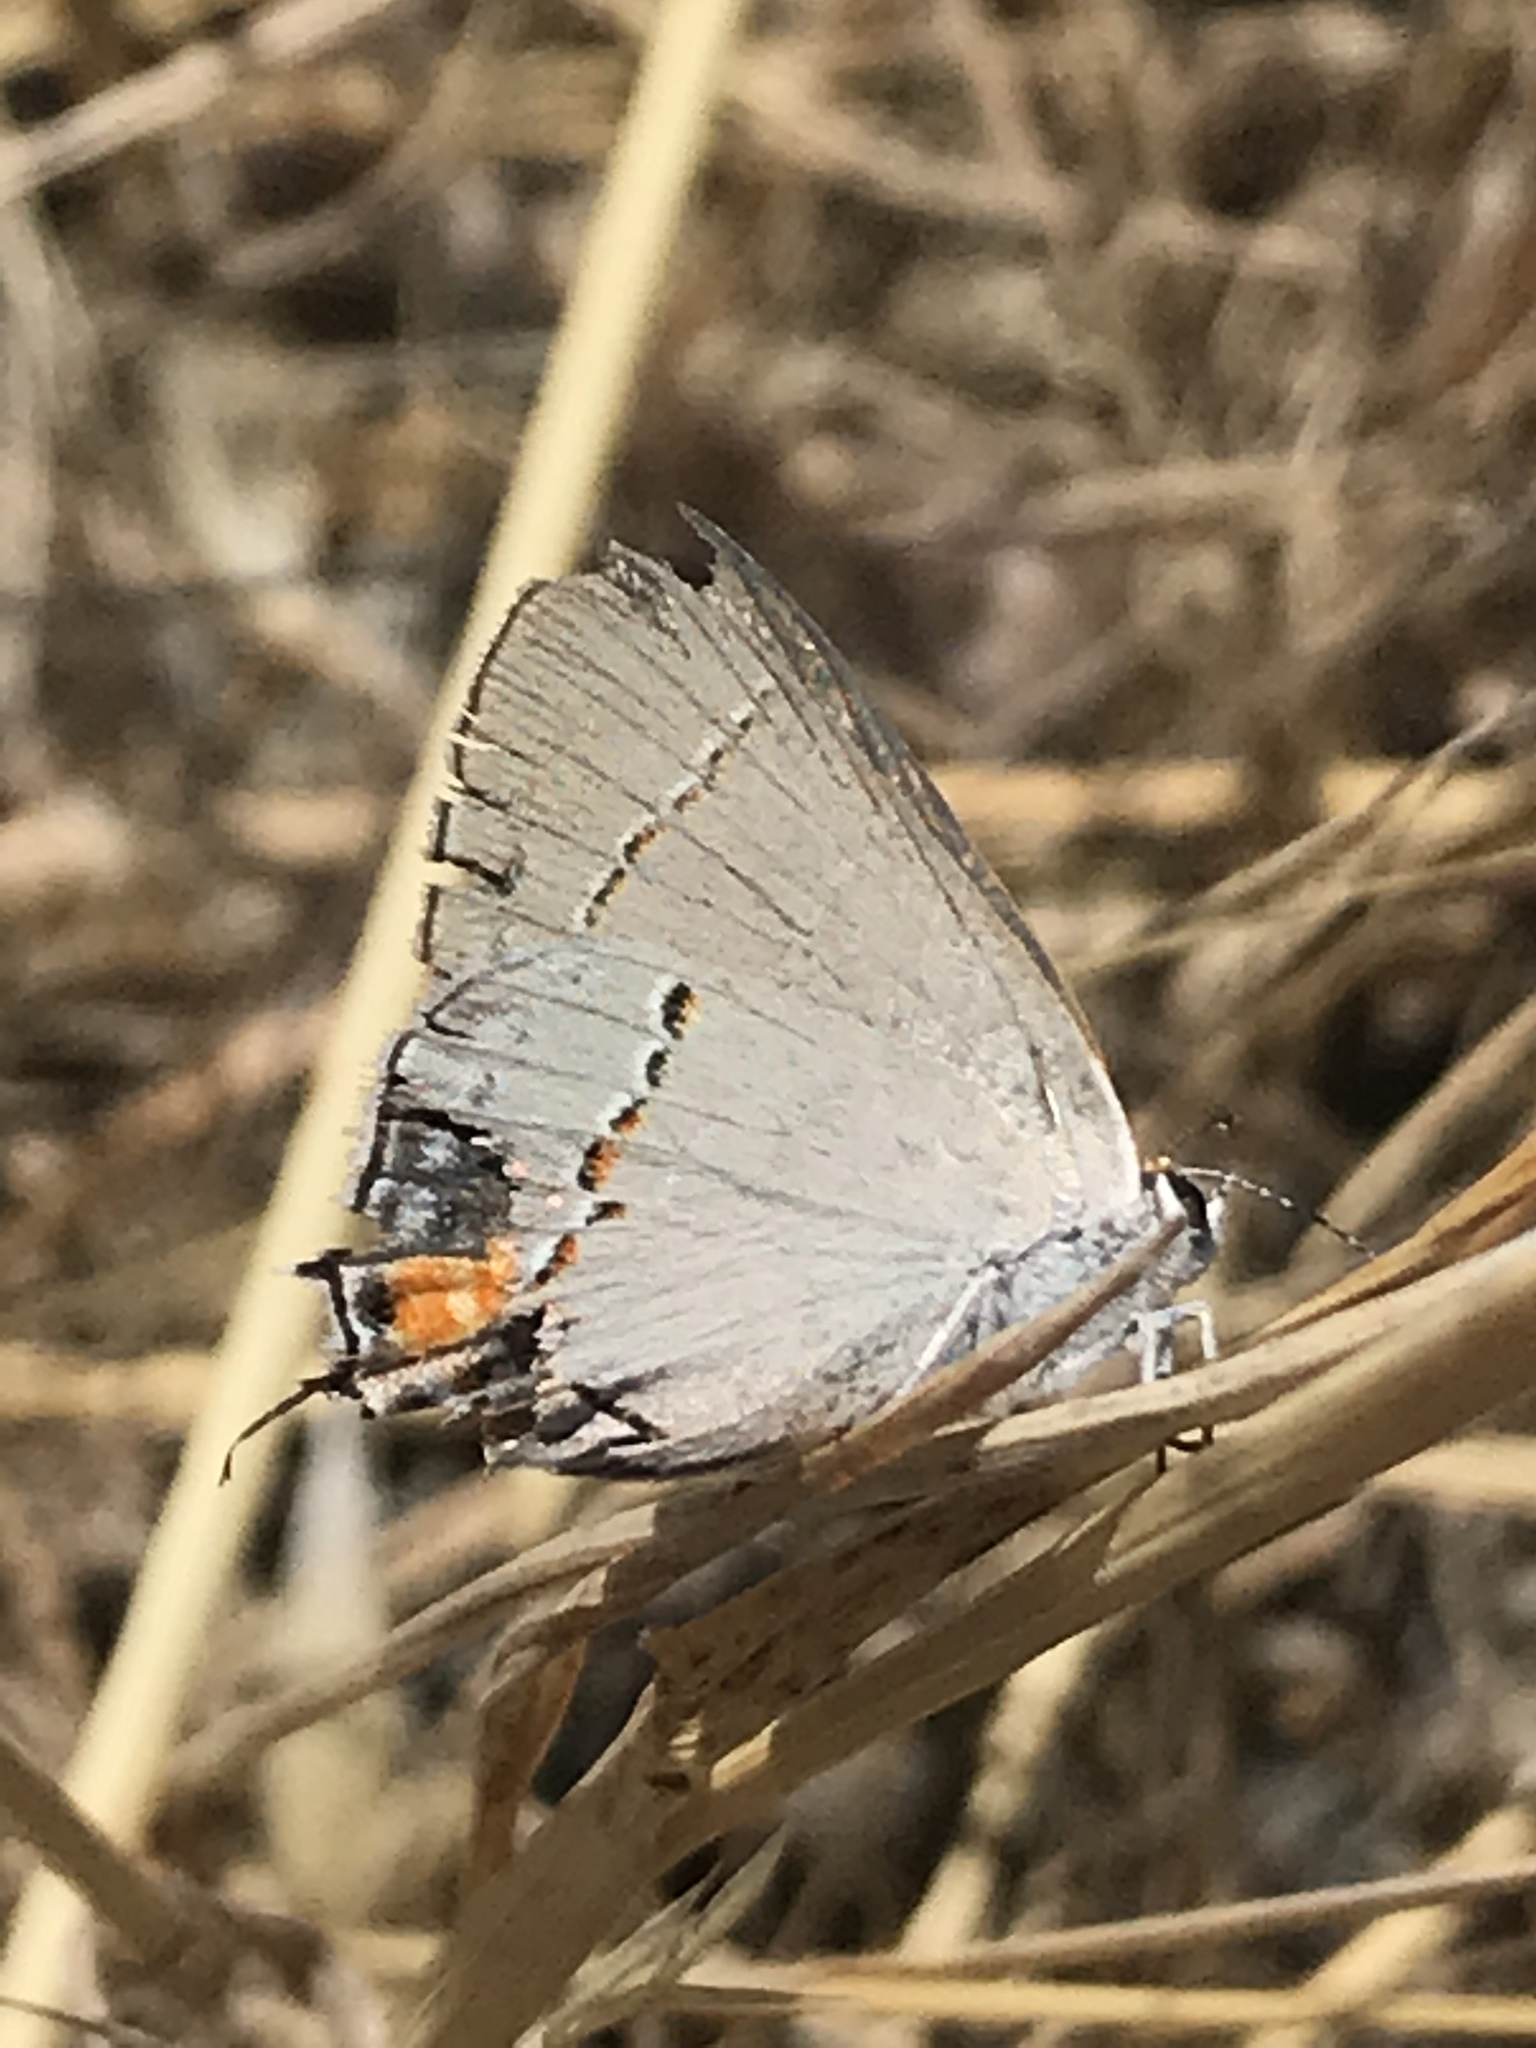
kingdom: Animalia
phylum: Arthropoda
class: Insecta
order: Lepidoptera
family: Lycaenidae
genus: Strymon
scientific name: Strymon melinus
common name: Gray hairstreak
